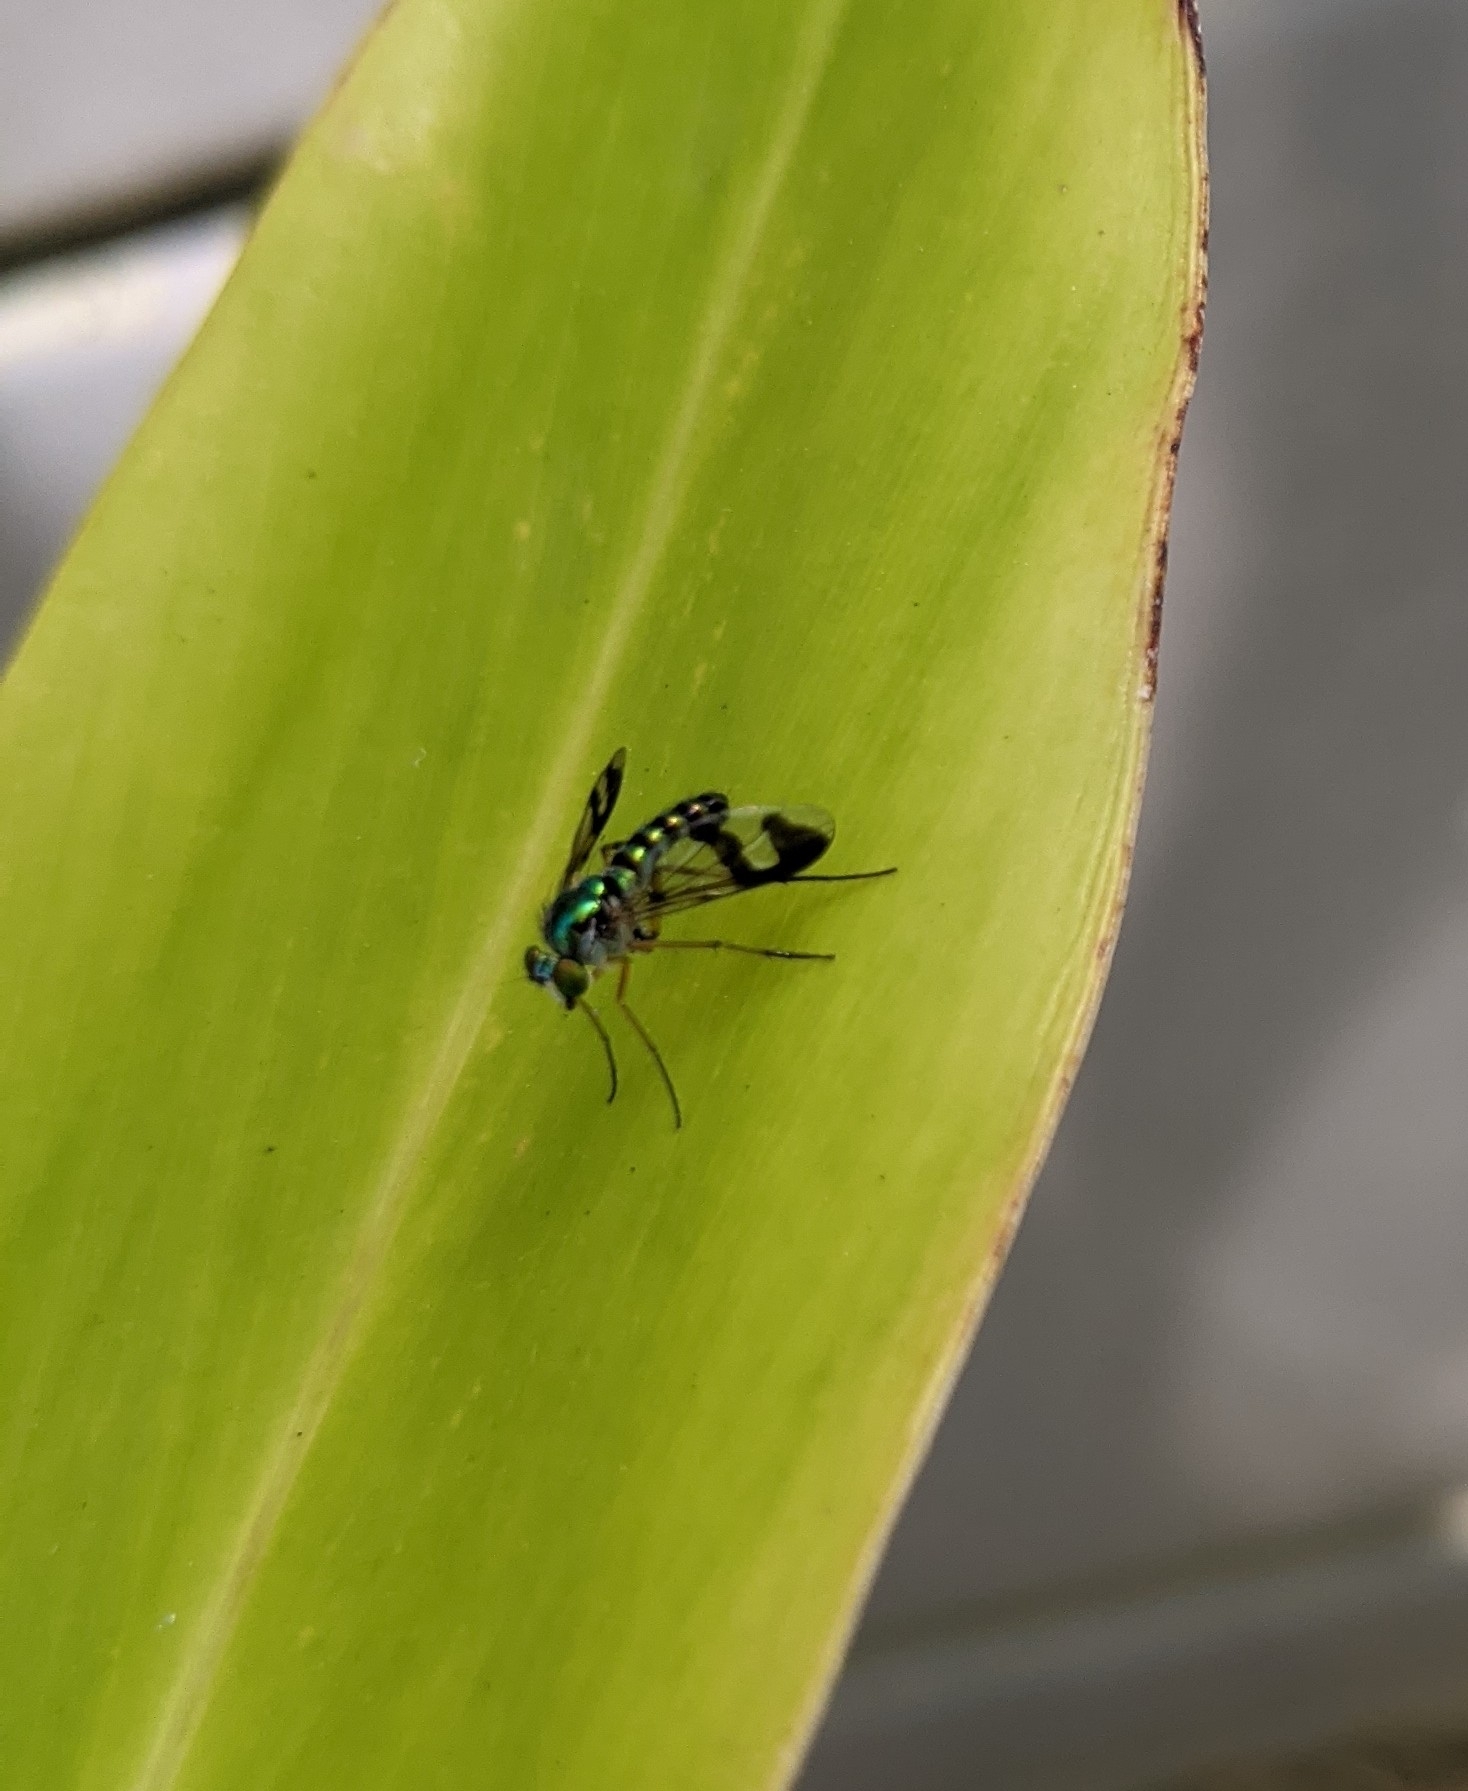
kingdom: Animalia
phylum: Arthropoda
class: Insecta
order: Diptera
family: Dolichopodidae
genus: Austrosciapus
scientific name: Austrosciapus
